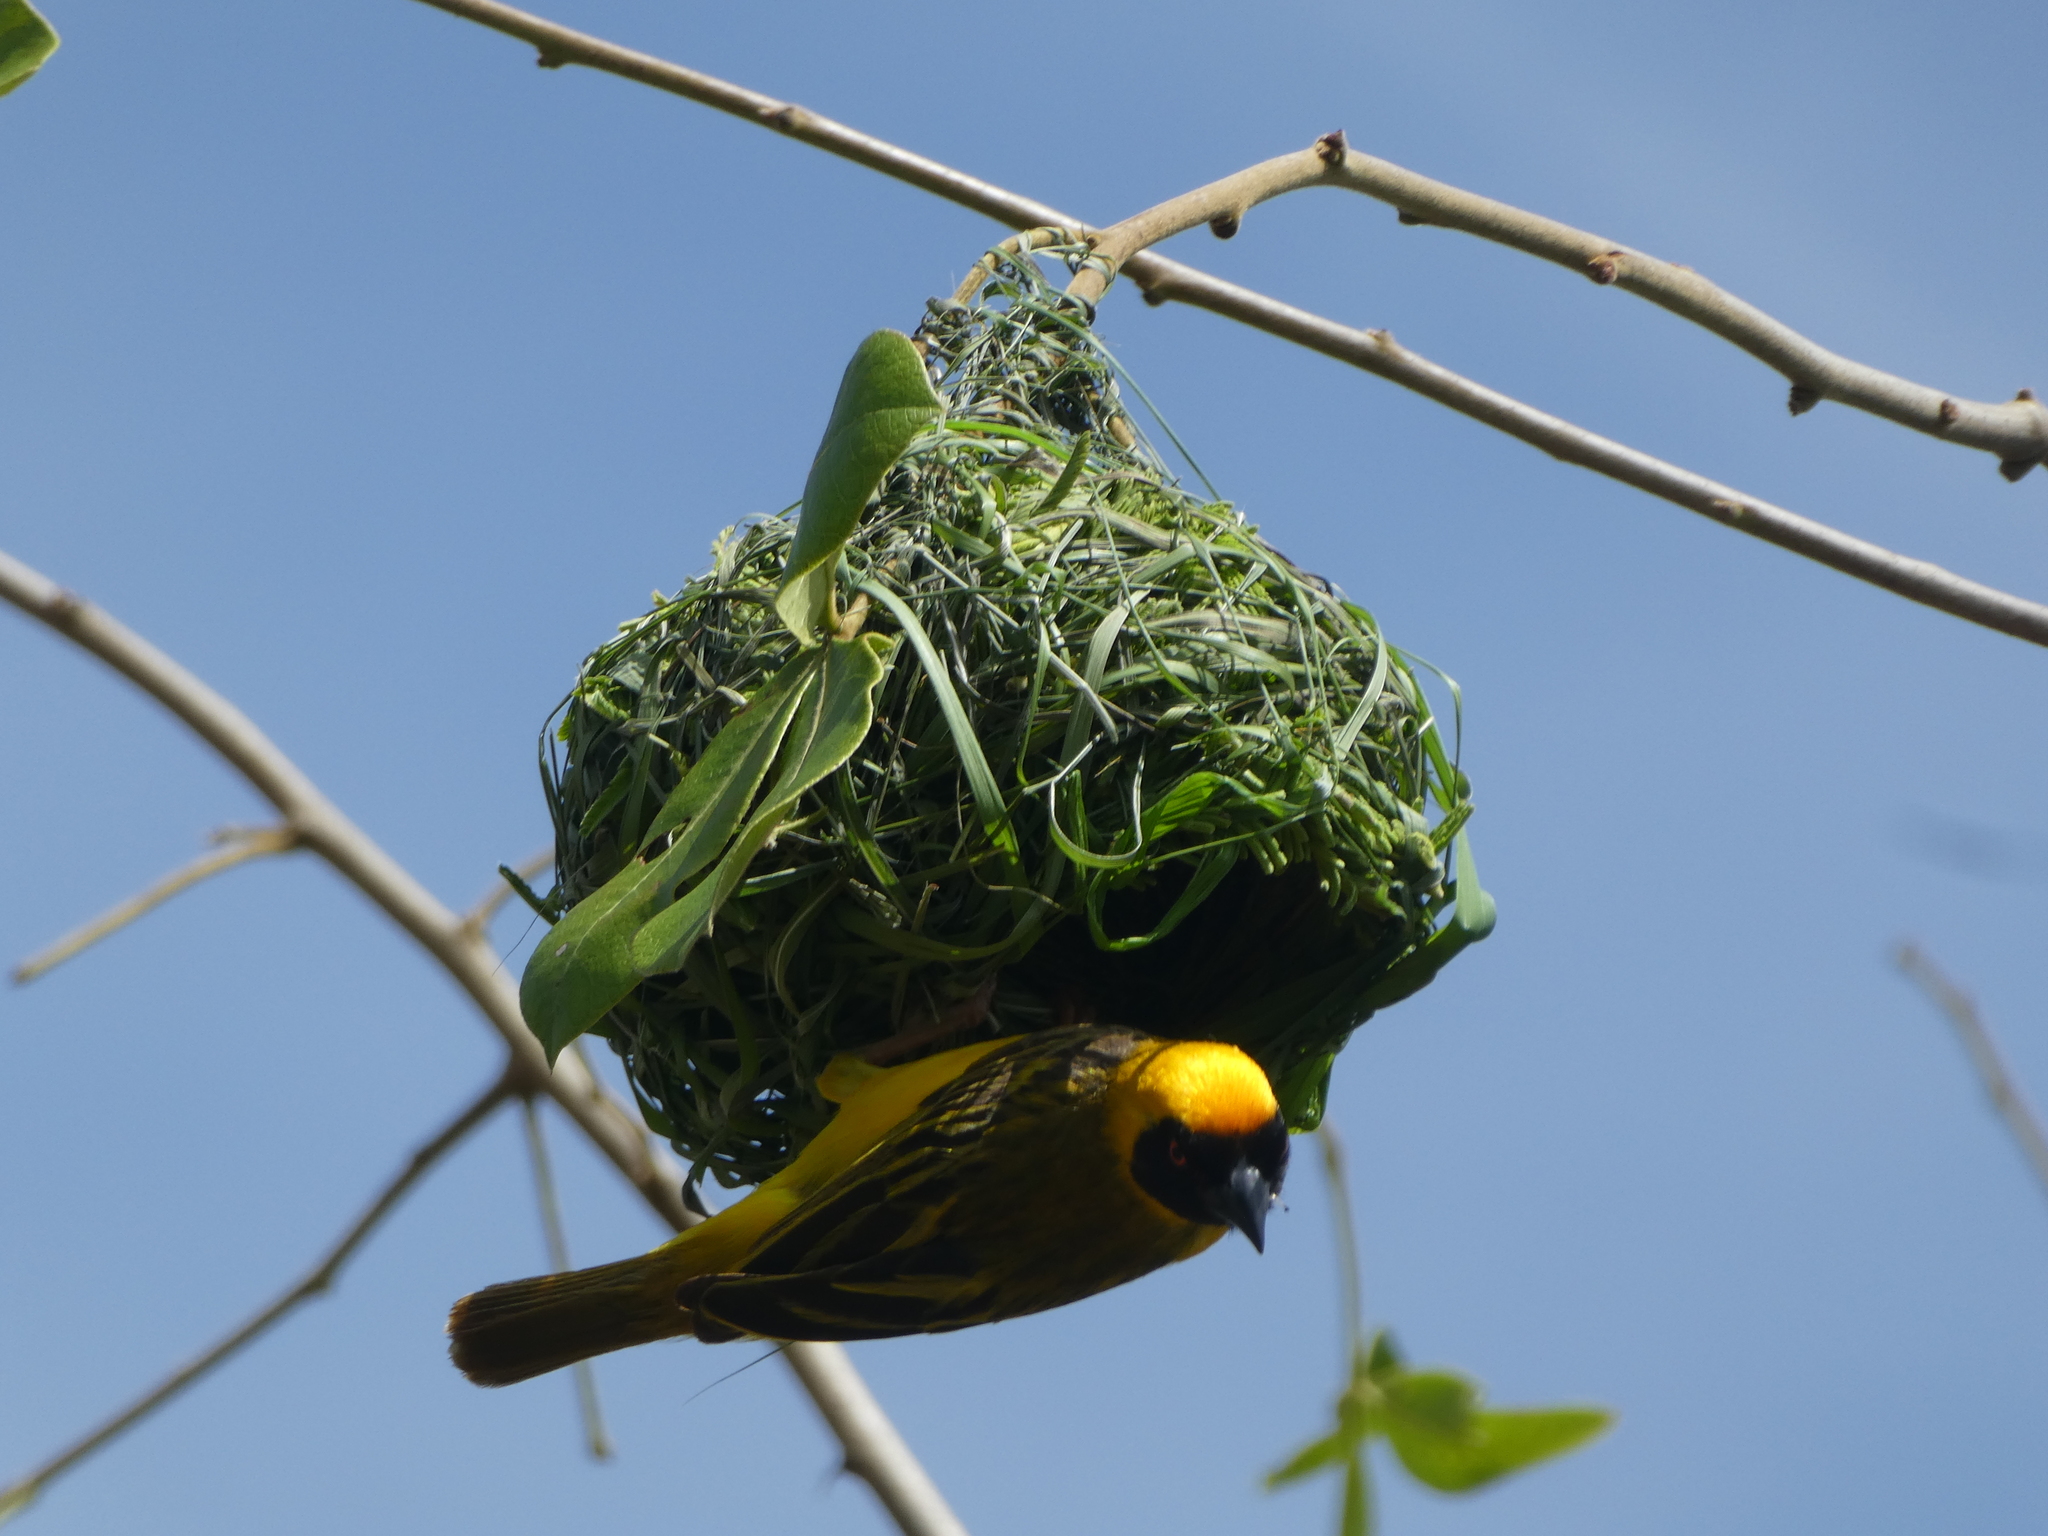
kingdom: Animalia
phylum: Chordata
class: Aves
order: Passeriformes
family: Ploceidae
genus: Ploceus
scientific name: Ploceus velatus
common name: Southern masked weaver
